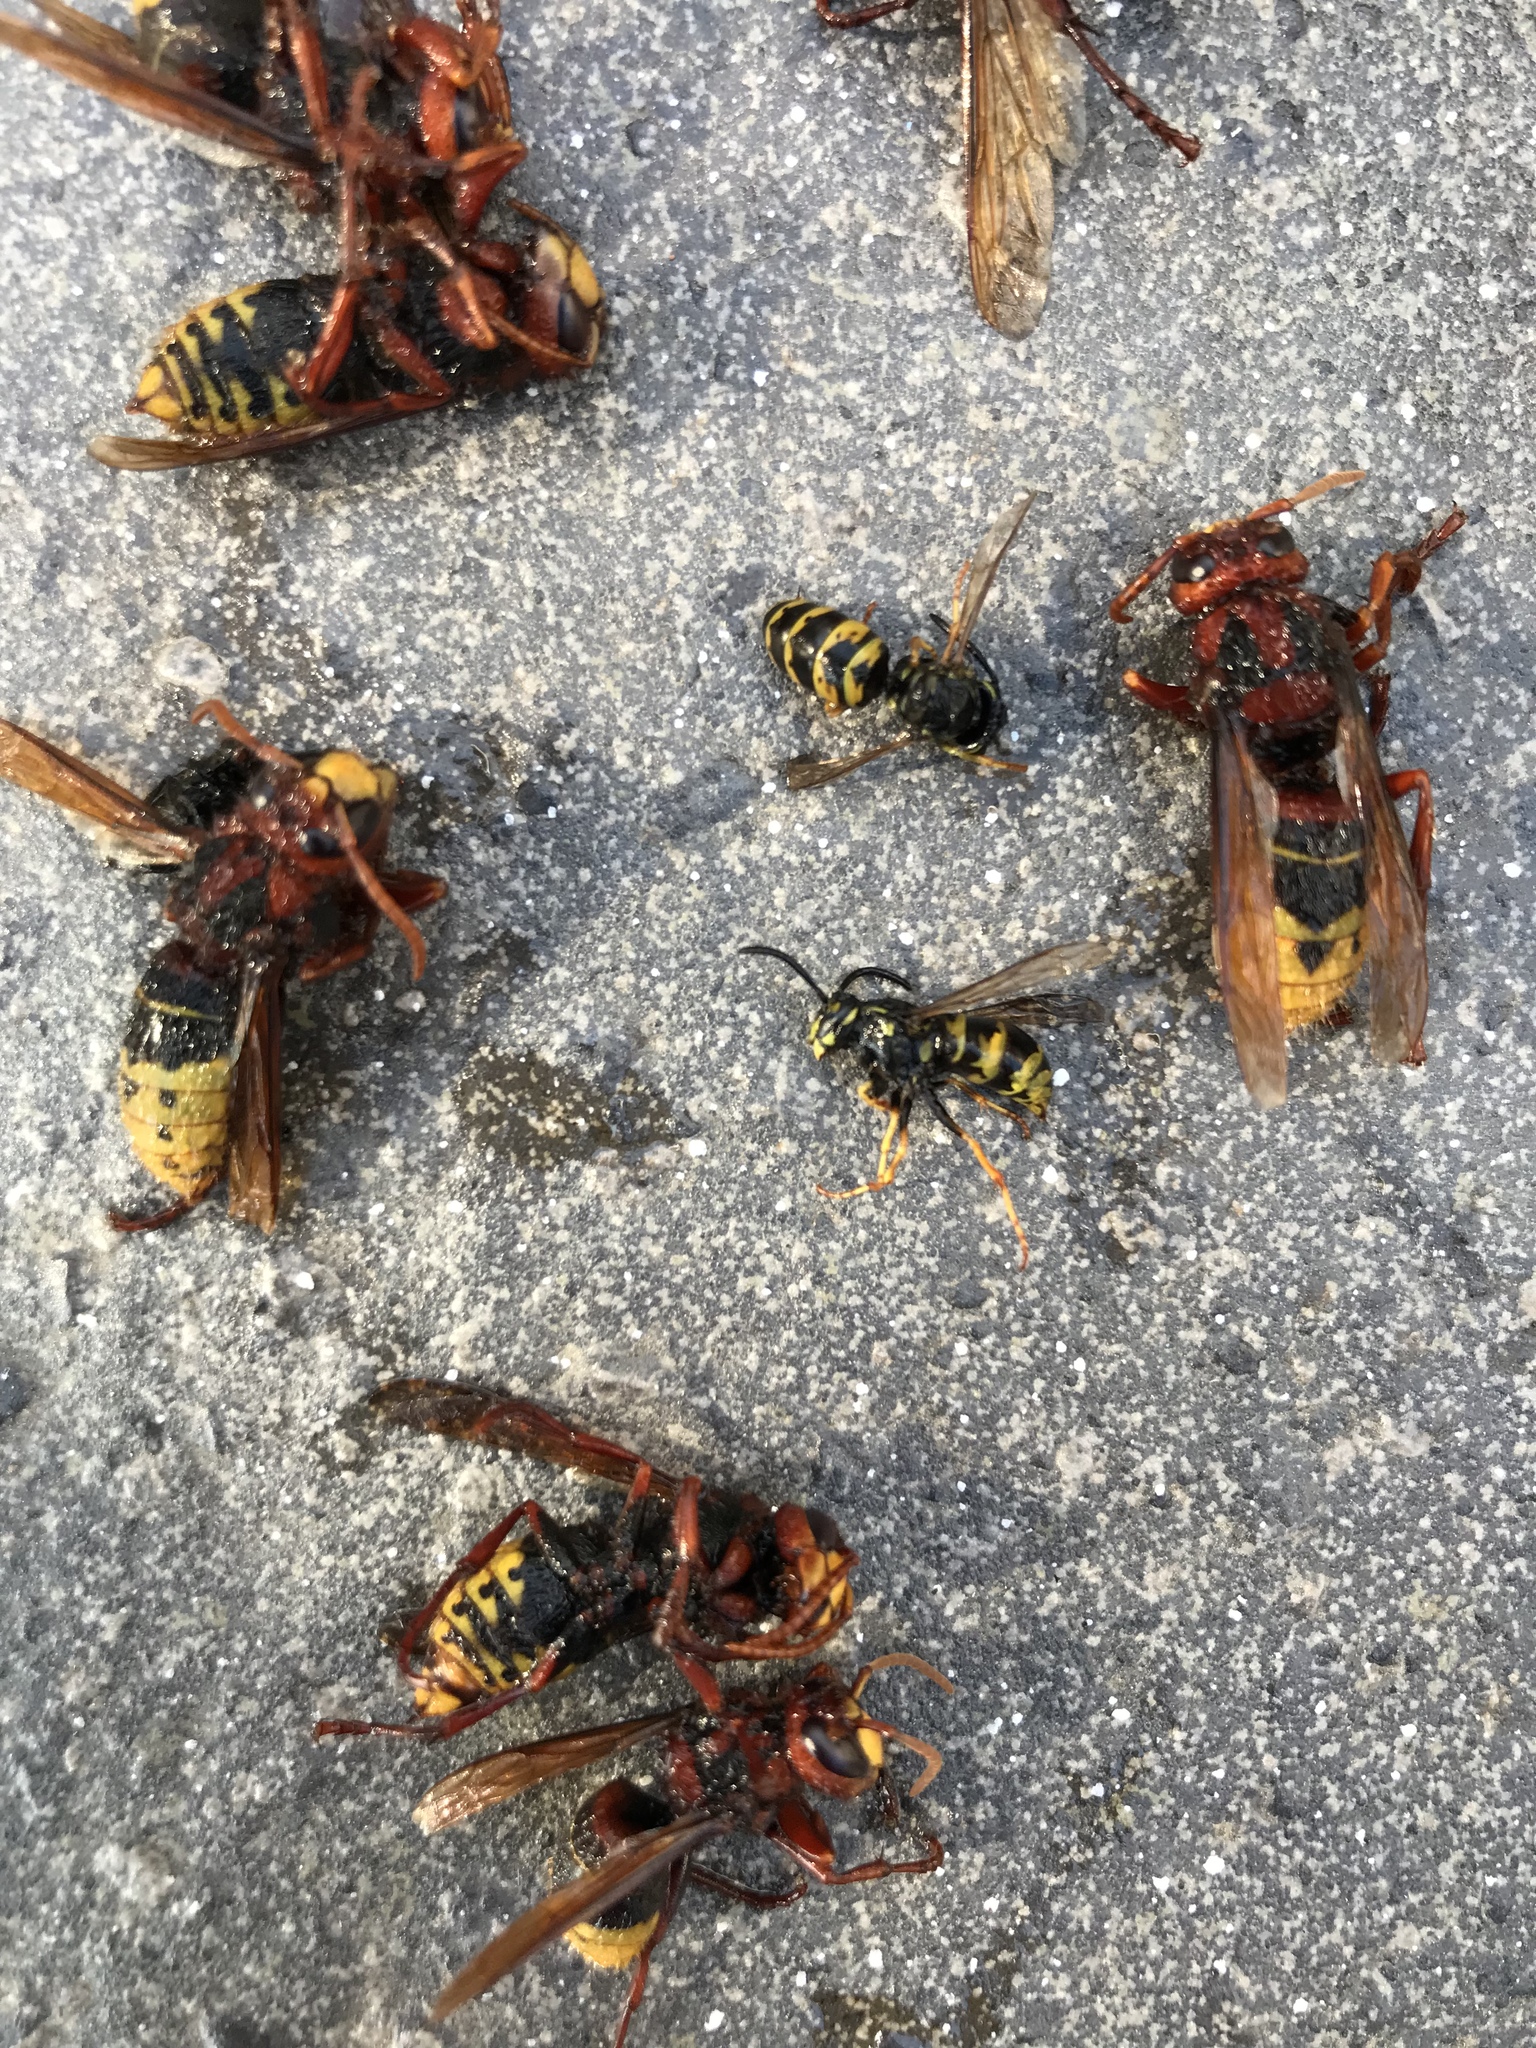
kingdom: Animalia
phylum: Arthropoda
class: Insecta
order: Hymenoptera
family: Vespidae
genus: Vespa
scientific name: Vespa crabro
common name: Hornet
